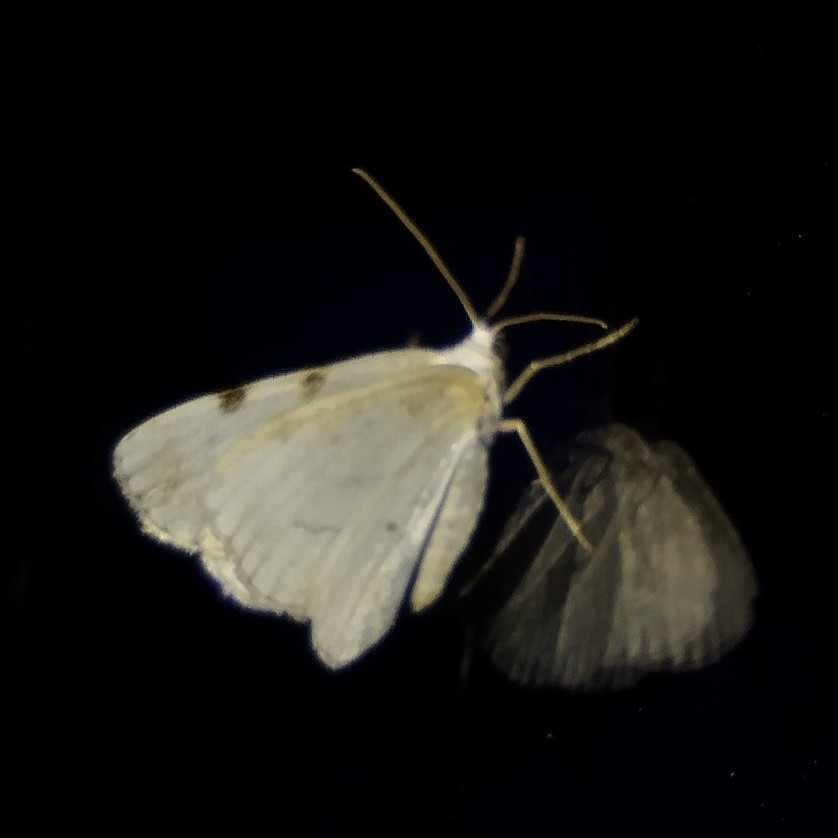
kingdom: Animalia
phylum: Arthropoda
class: Insecta
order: Lepidoptera
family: Geometridae
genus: Lomographa
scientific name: Lomographa bimaculata
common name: White-pinion spotted
